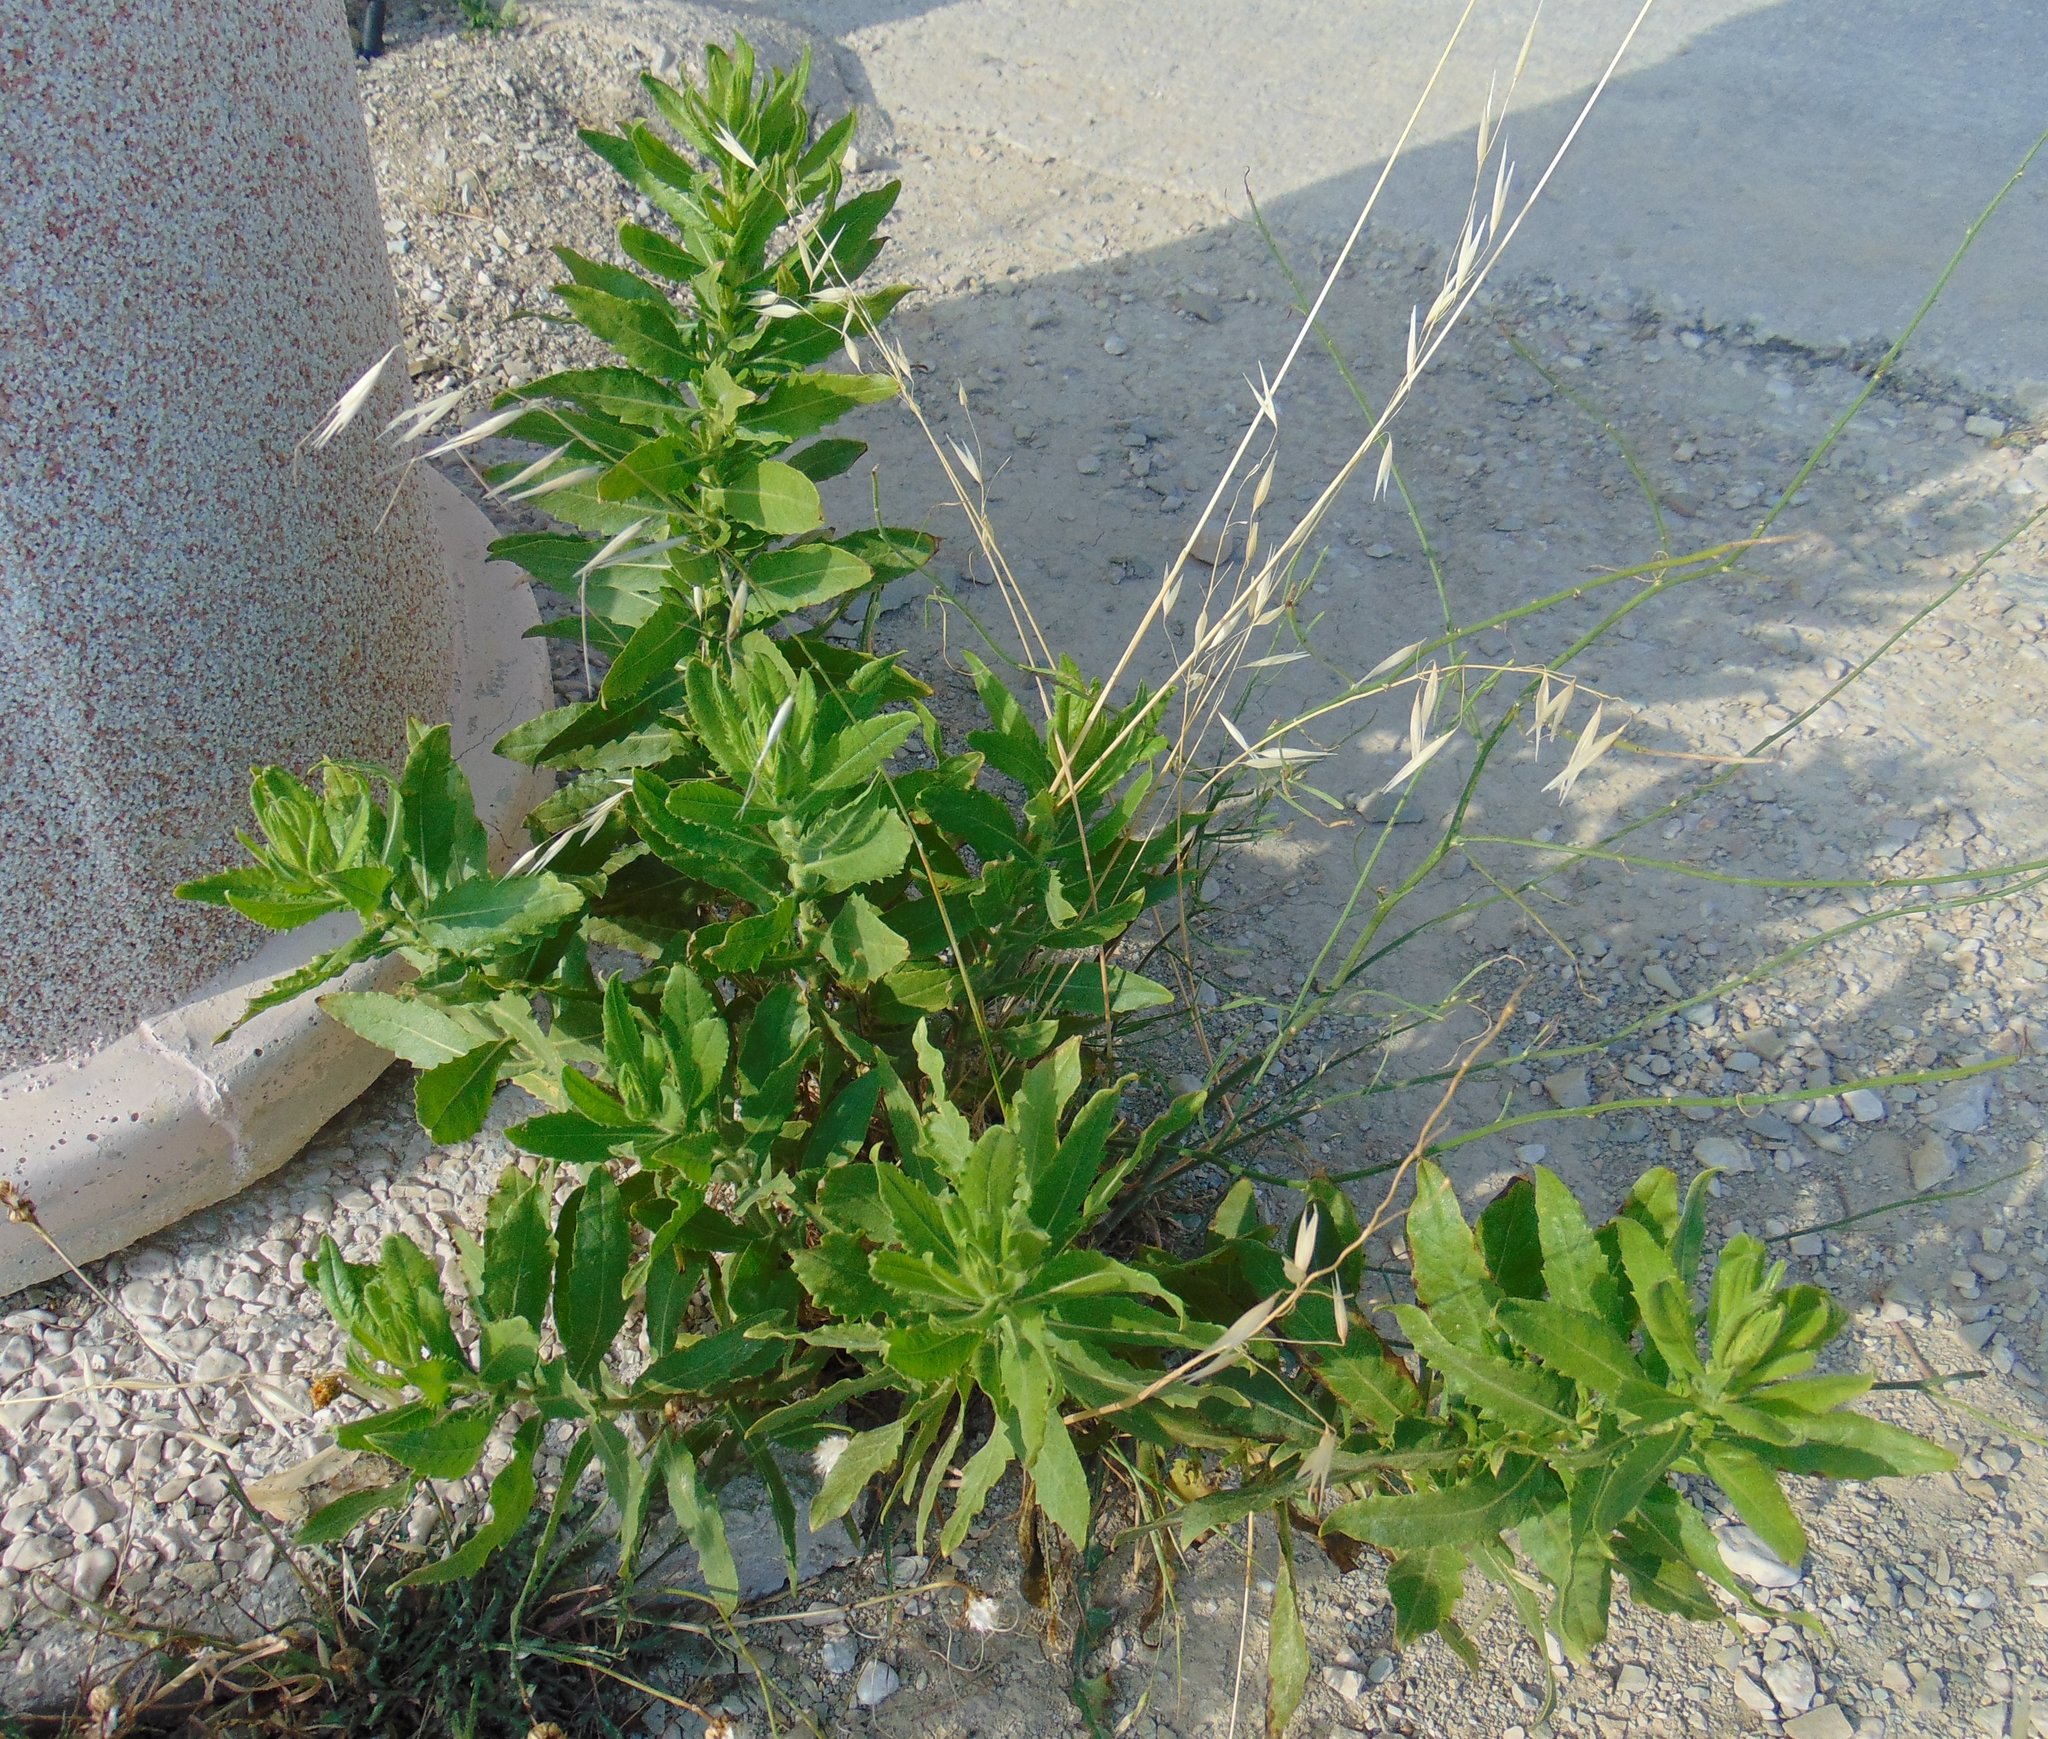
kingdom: Plantae
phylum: Tracheophyta
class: Magnoliopsida
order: Asterales
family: Asteraceae
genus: Dittrichia
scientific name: Dittrichia viscosa
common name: Woody fleabane
